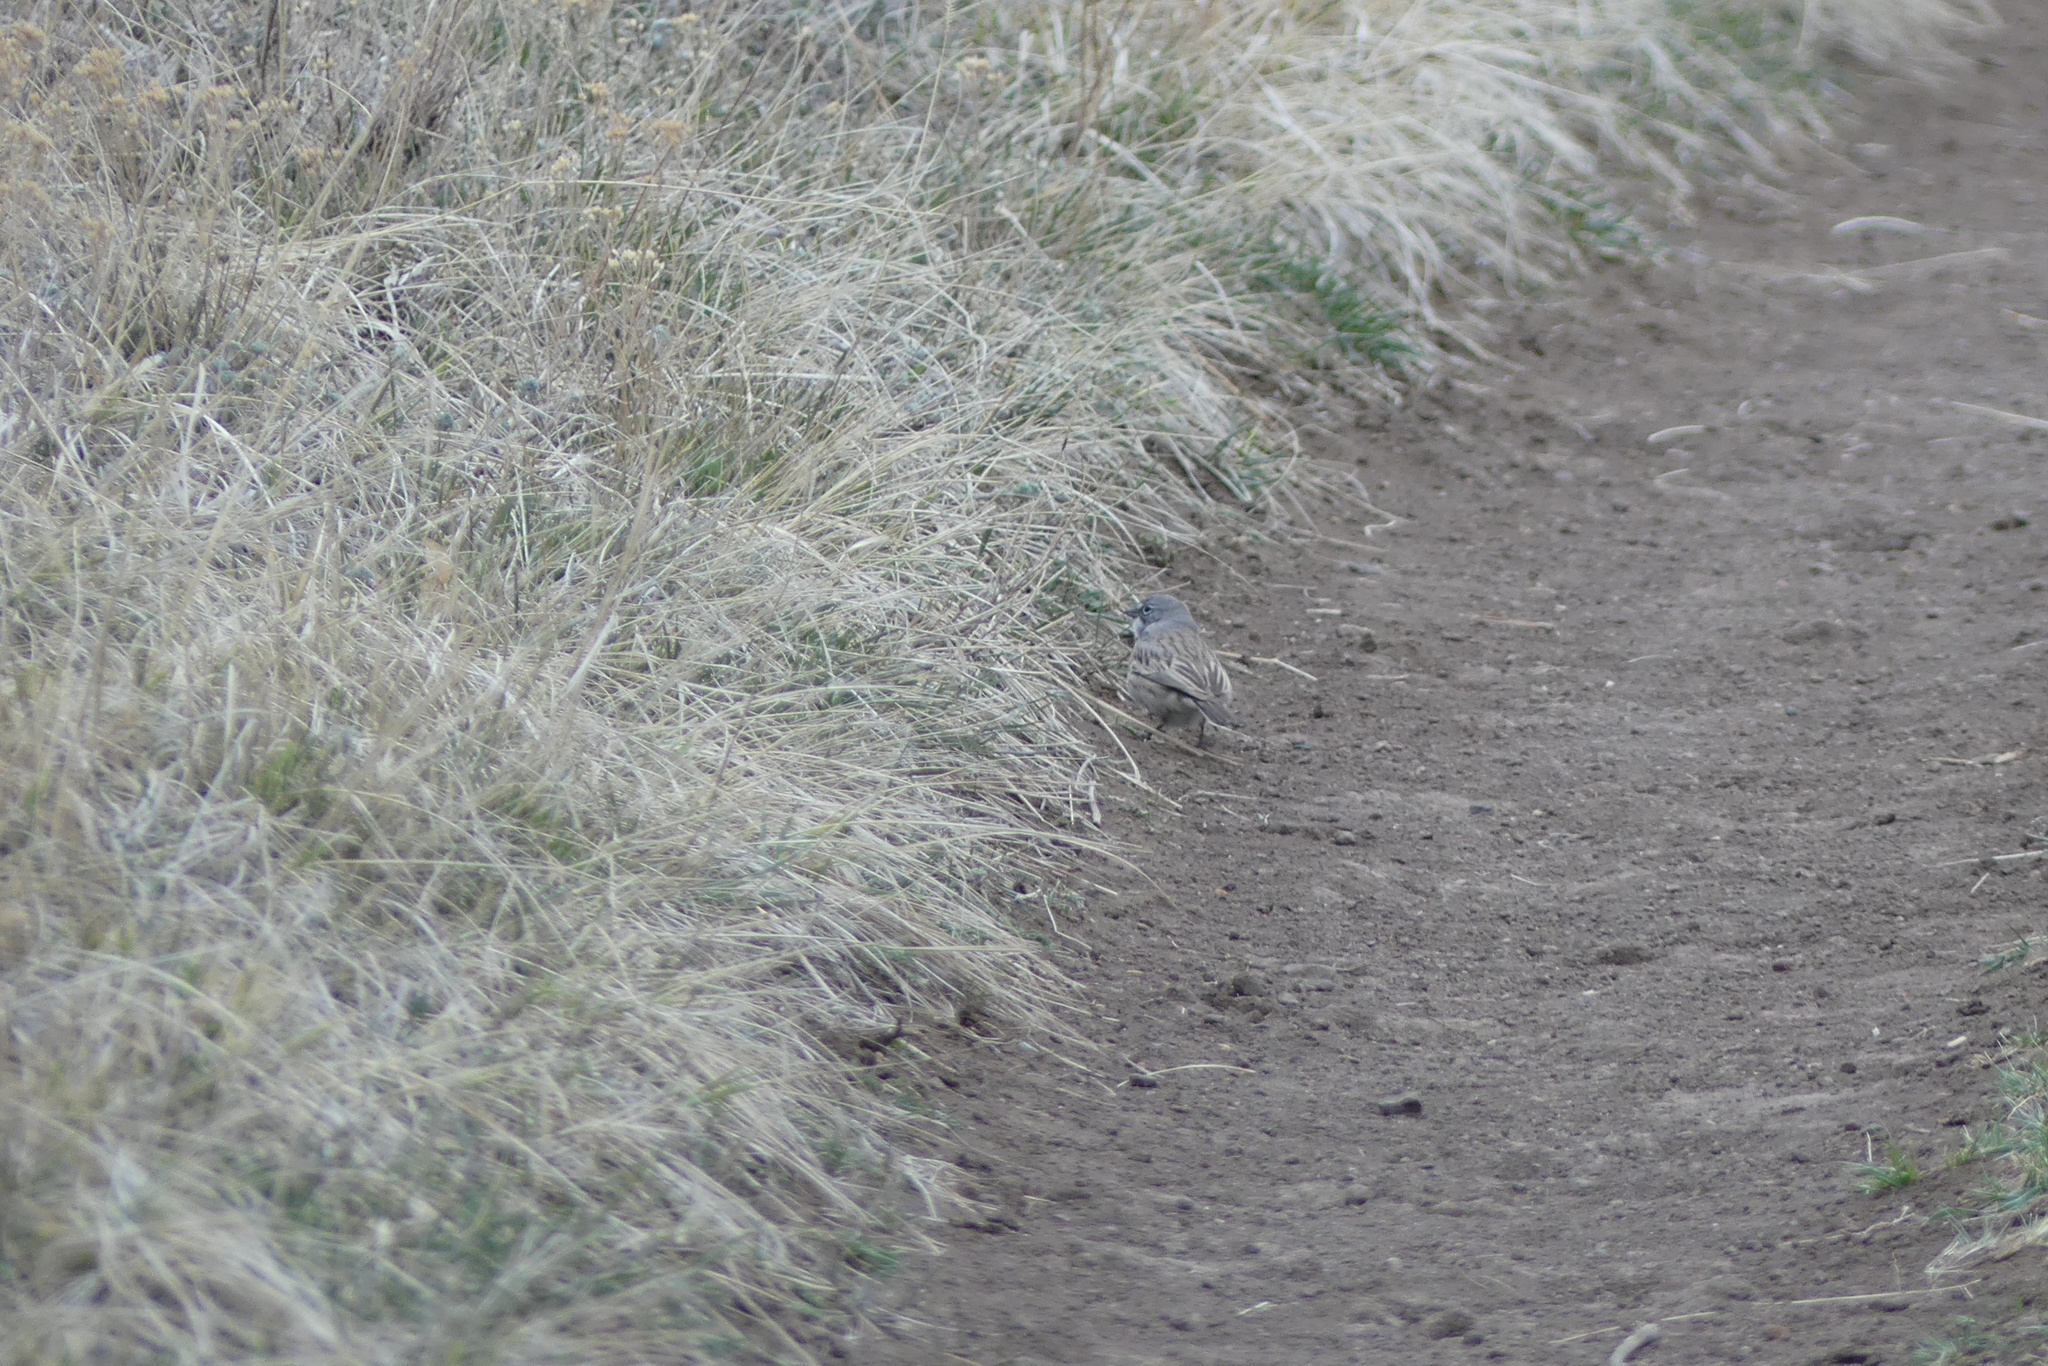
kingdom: Animalia
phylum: Chordata
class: Aves
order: Passeriformes
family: Passerellidae
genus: Artemisiospiza
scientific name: Artemisiospiza nevadensis
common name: Sagebrush sparrow
